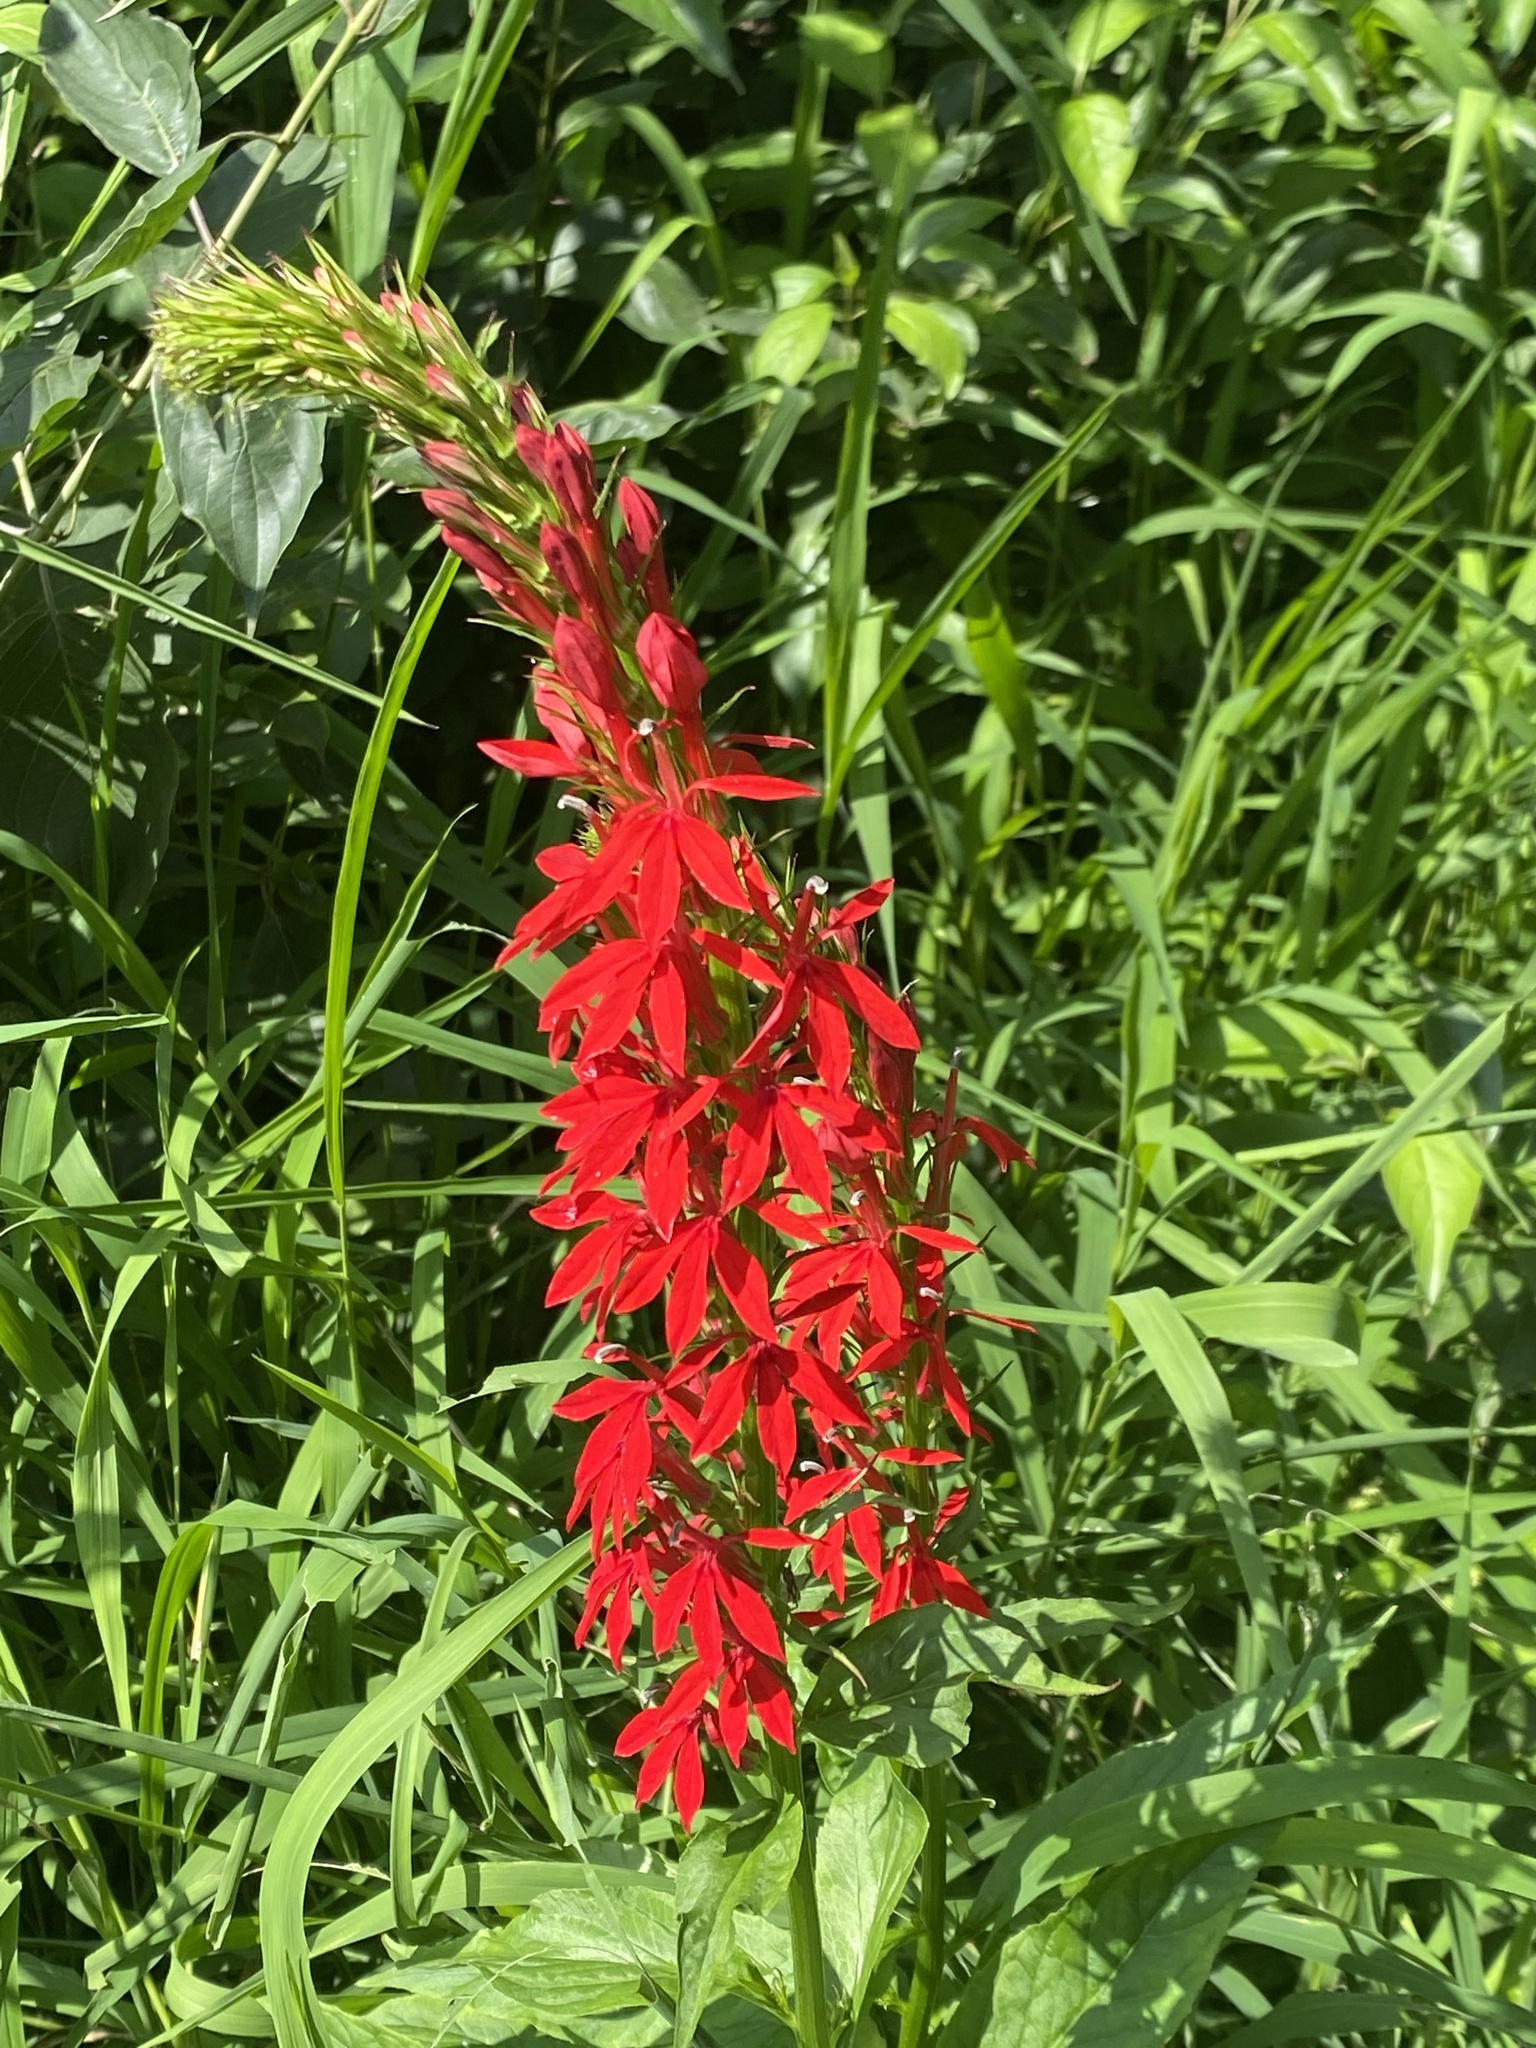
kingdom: Plantae
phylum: Tracheophyta
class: Magnoliopsida
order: Asterales
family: Campanulaceae
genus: Lobelia
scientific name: Lobelia cardinalis
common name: Cardinal flower
